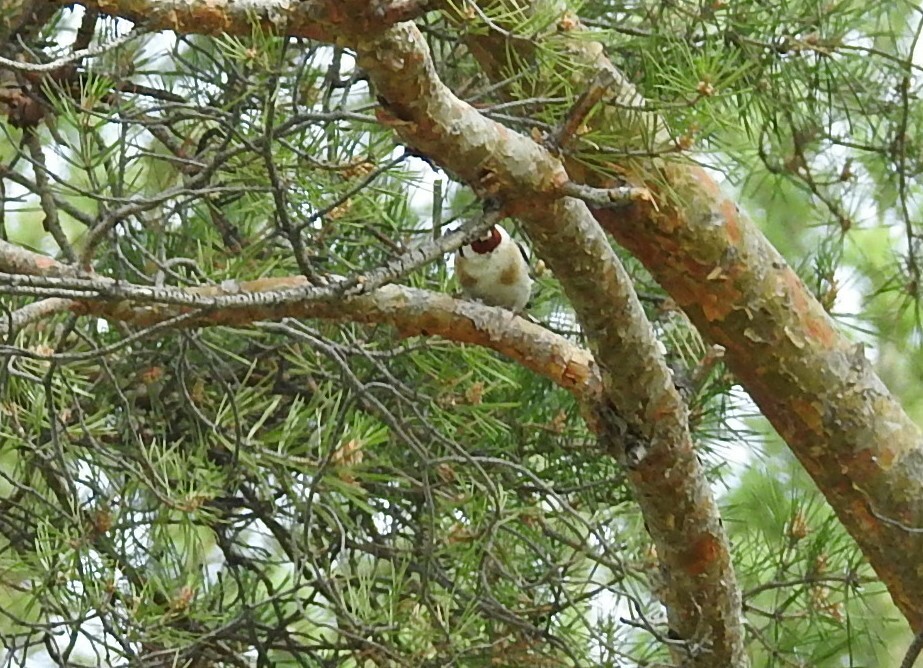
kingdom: Animalia
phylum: Chordata
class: Aves
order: Passeriformes
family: Fringillidae
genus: Carduelis
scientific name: Carduelis carduelis
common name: European goldfinch
